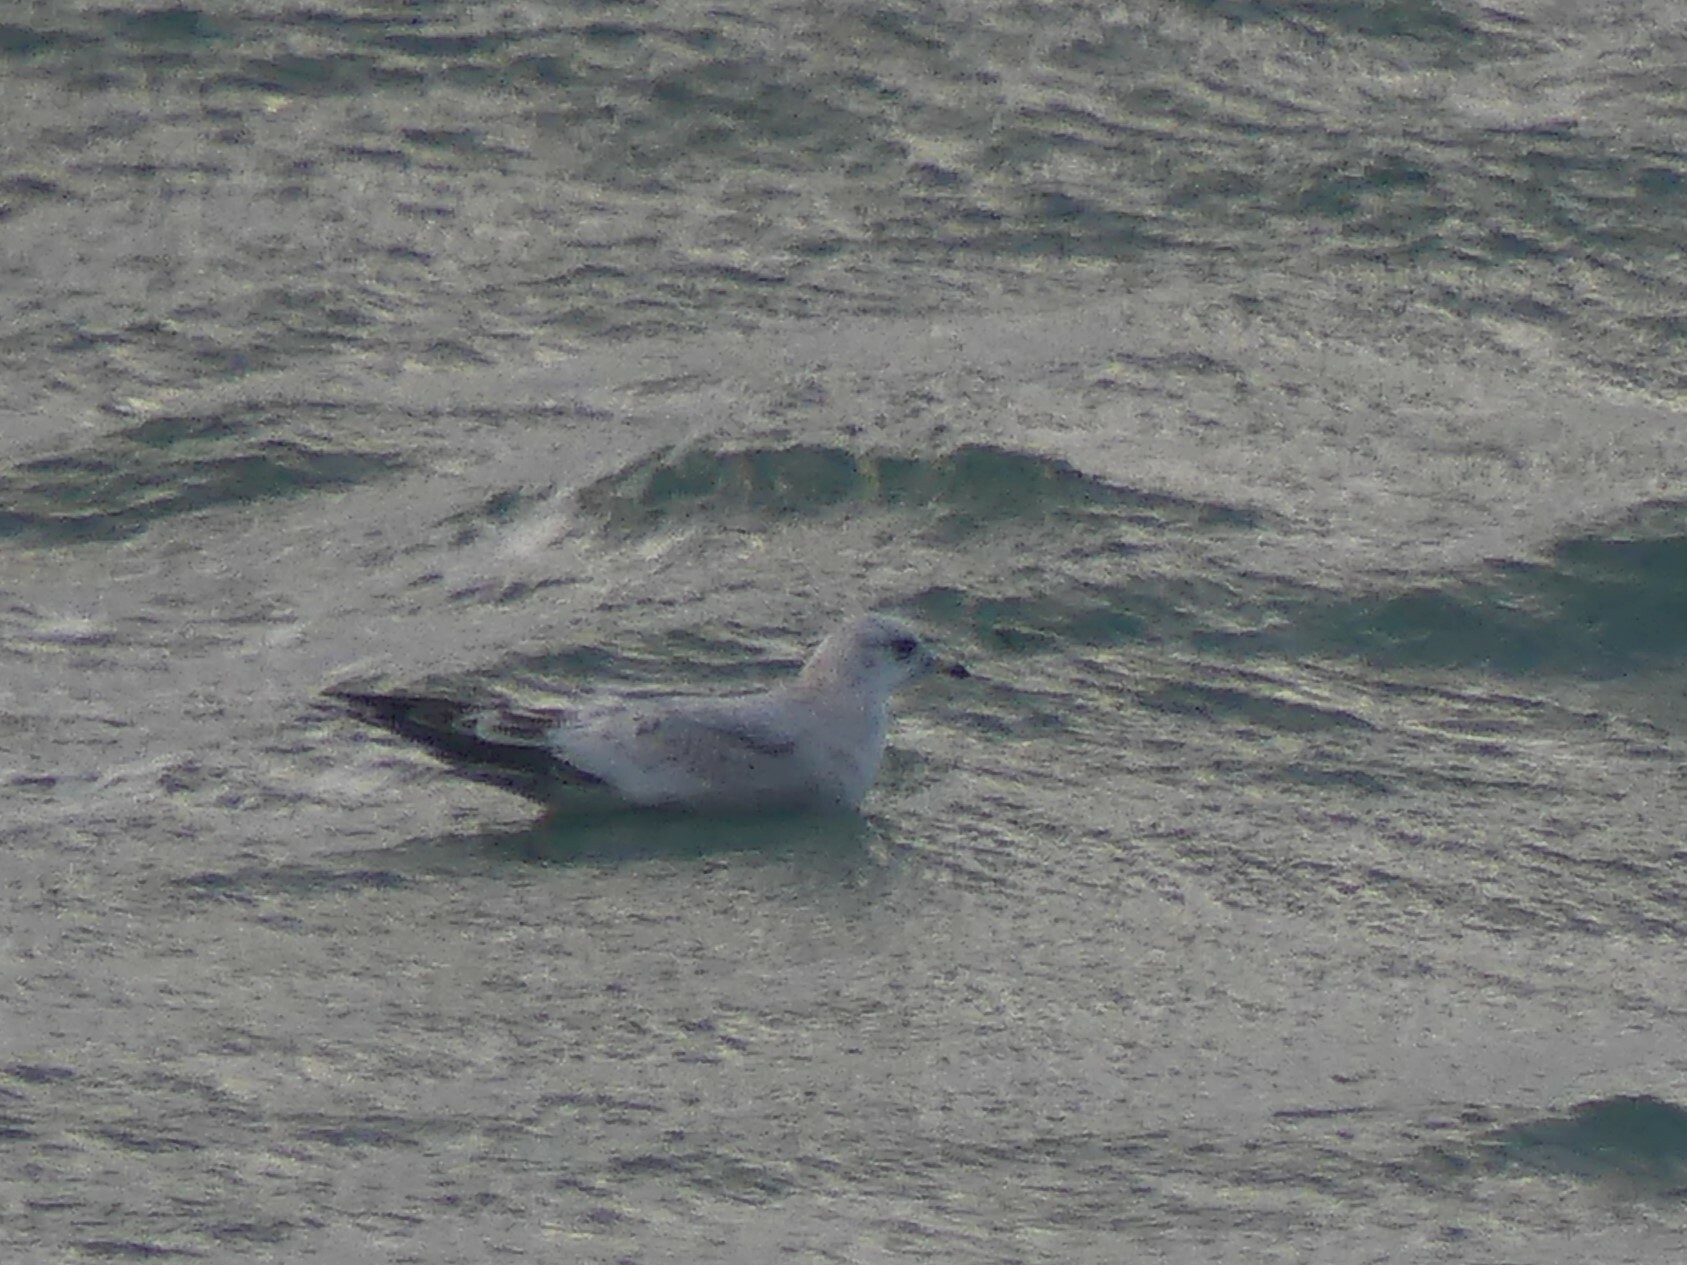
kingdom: Animalia
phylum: Chordata
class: Aves
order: Charadriiformes
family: Laridae
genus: Larus
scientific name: Larus brachyrhynchus
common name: Short-billed gull
